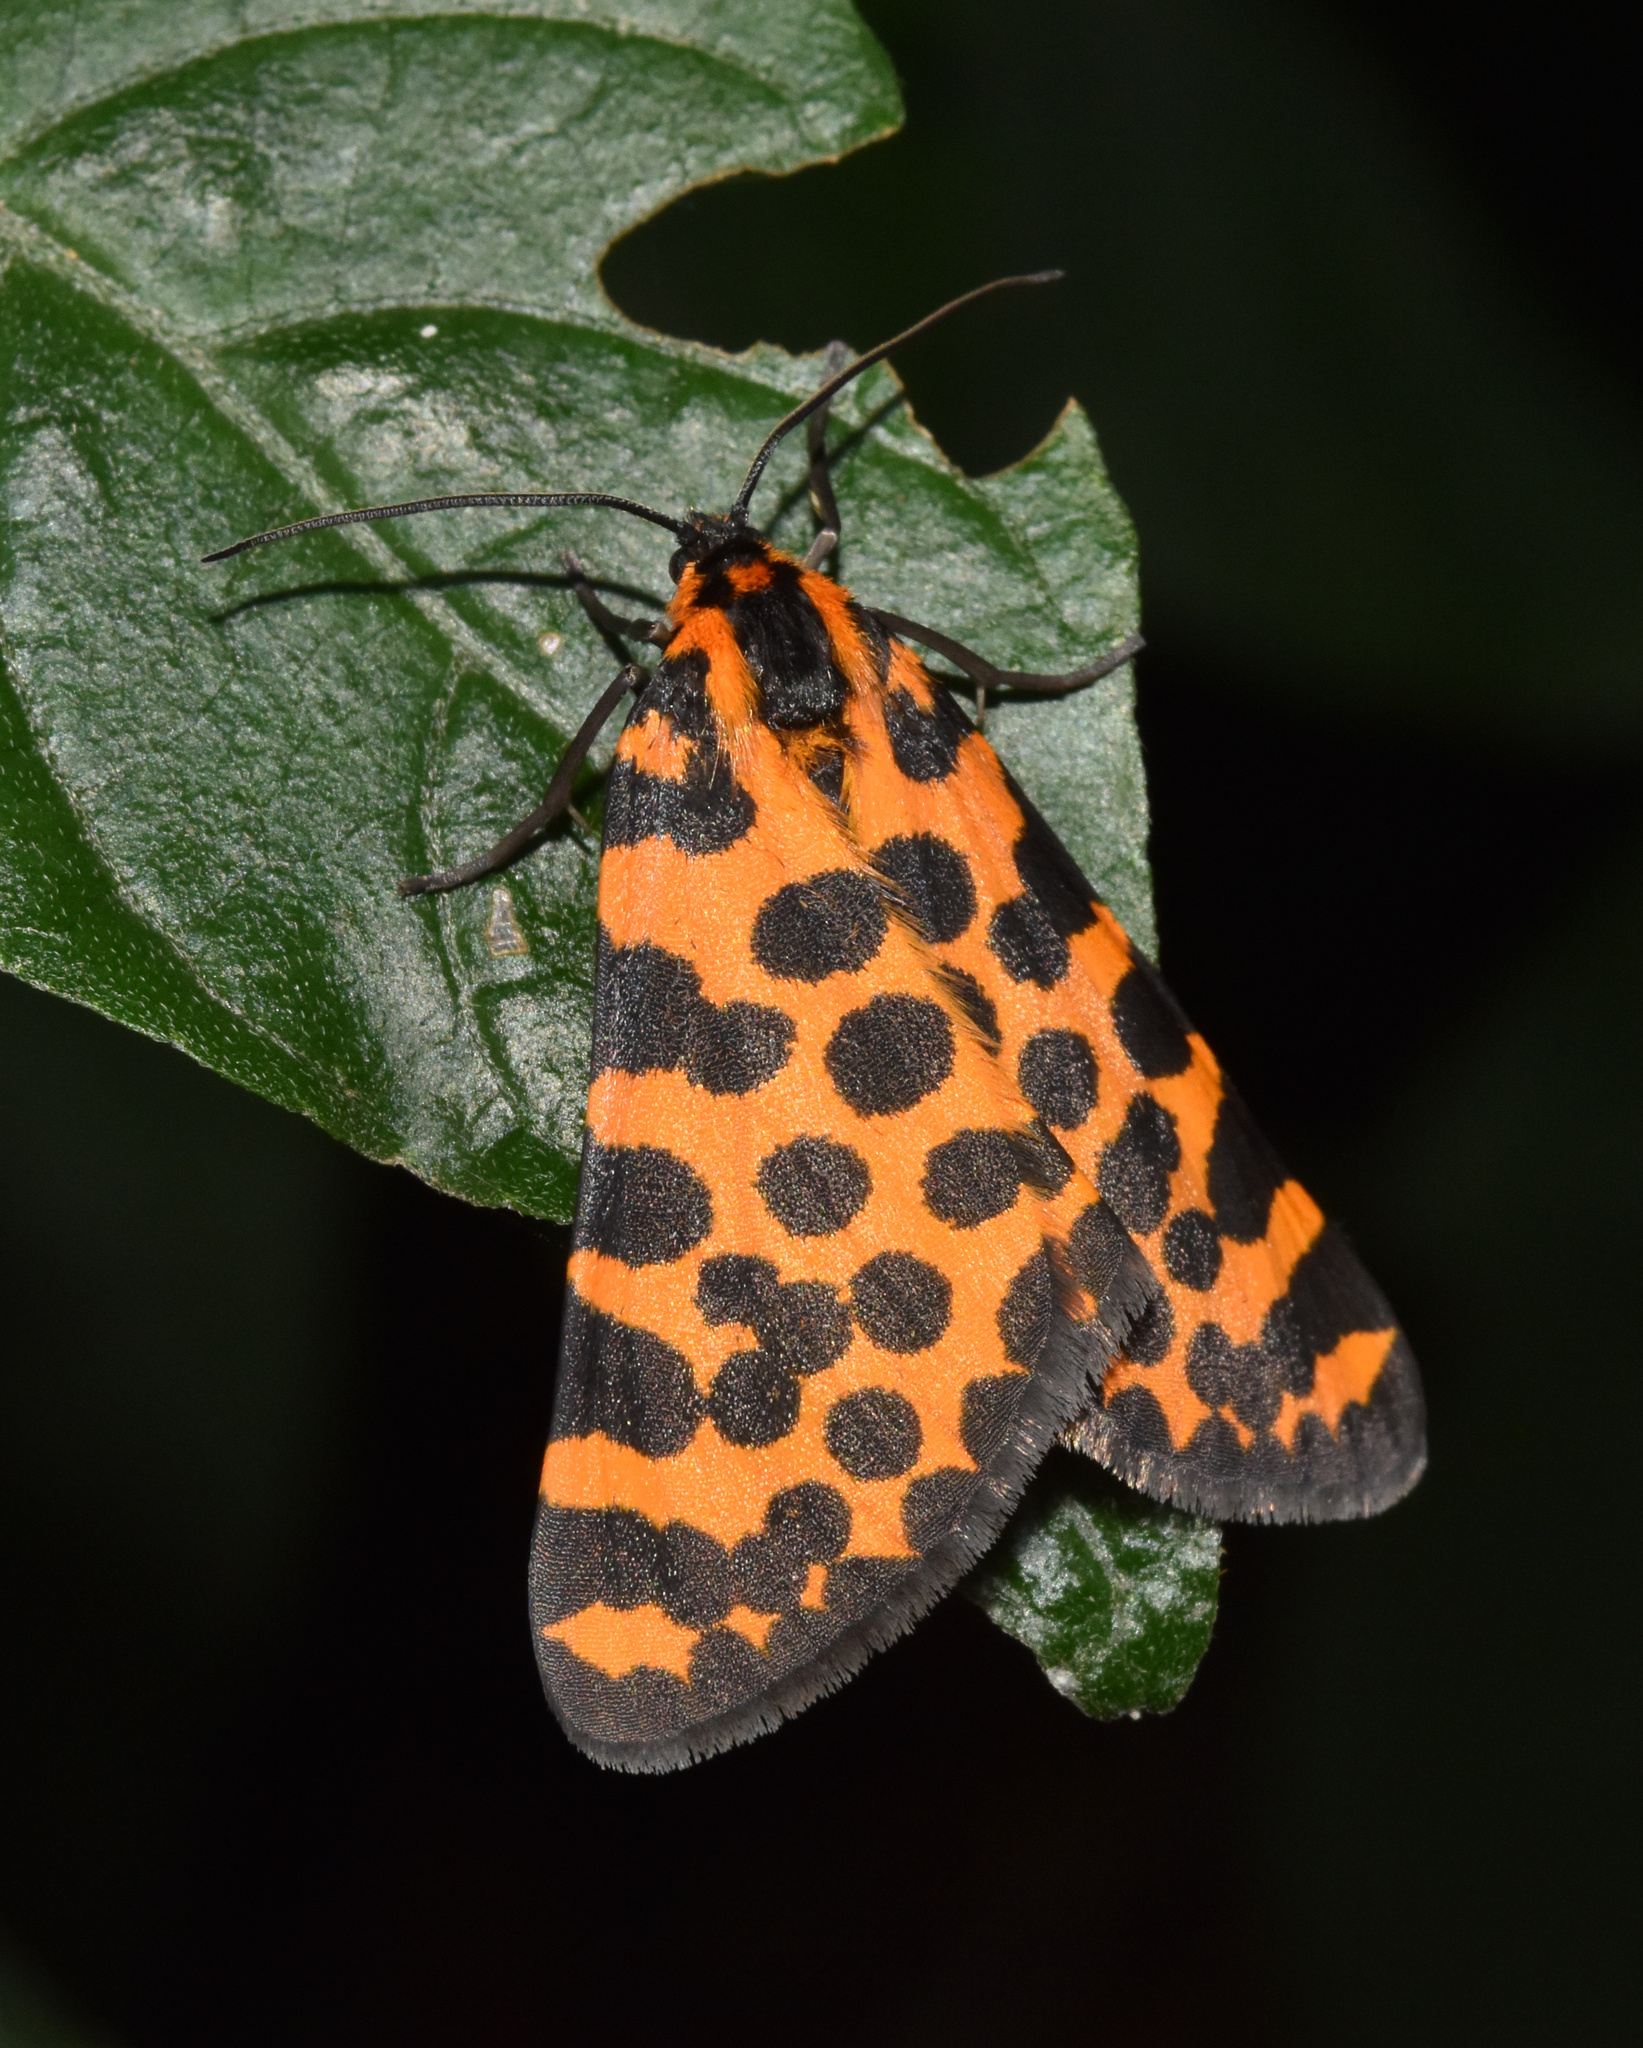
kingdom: Animalia
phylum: Arthropoda
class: Insecta
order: Lepidoptera
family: Geometridae
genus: Zerenopsis
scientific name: Zerenopsis lepida
